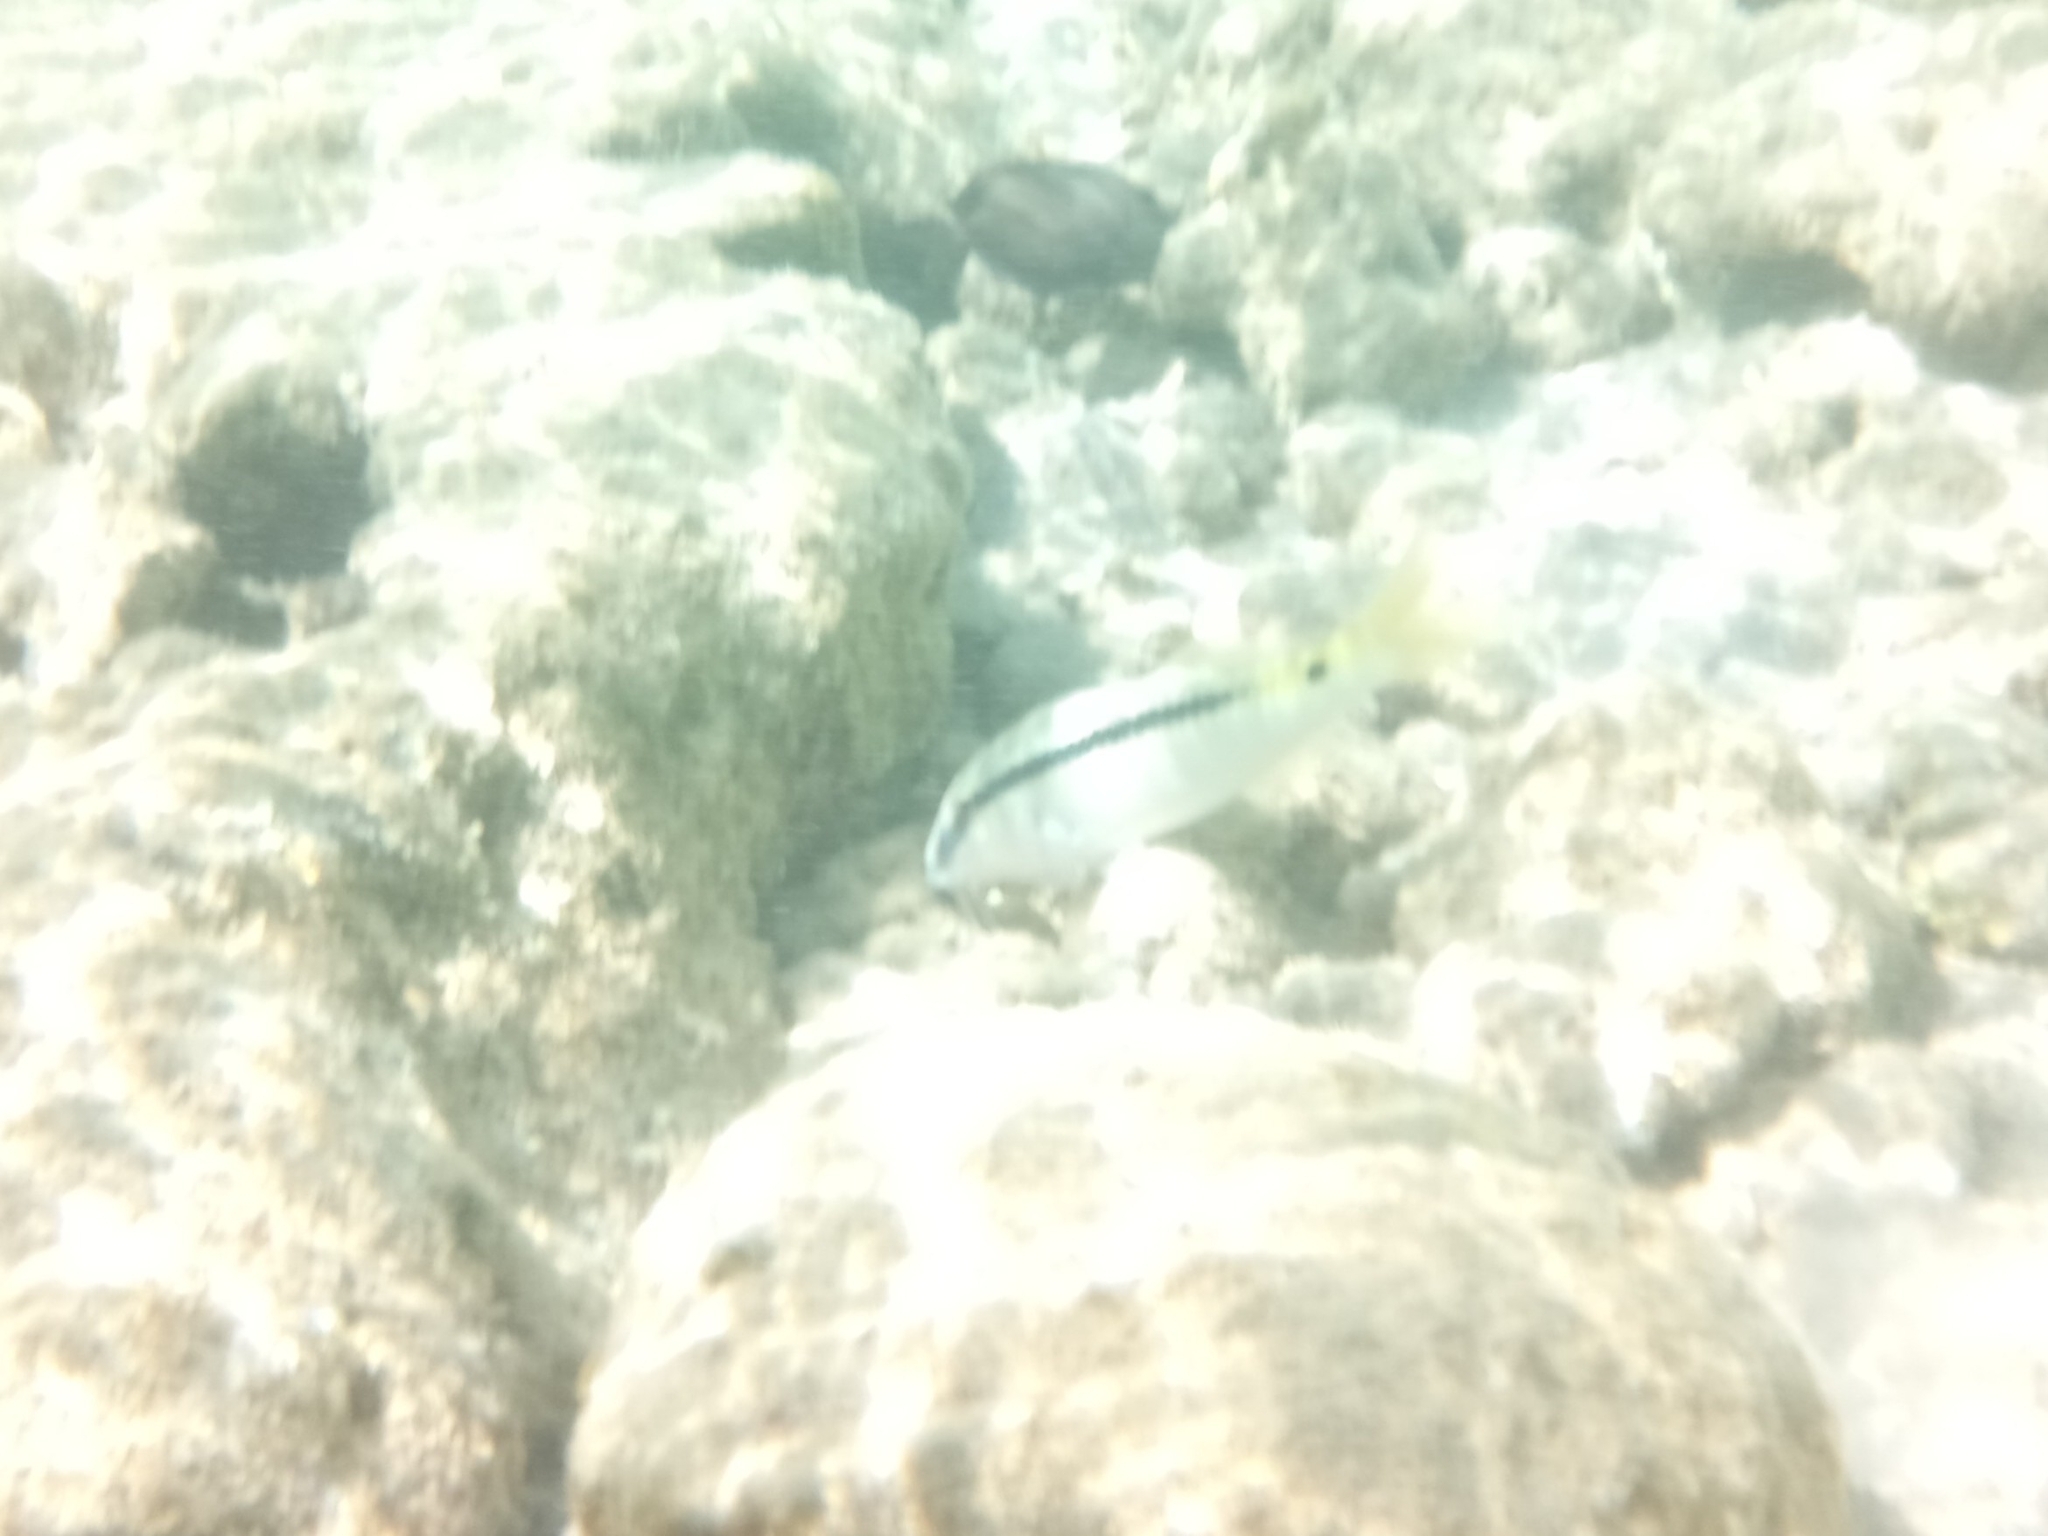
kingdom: Animalia
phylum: Chordata
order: Perciformes
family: Mullidae
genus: Parupeneus
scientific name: Parupeneus forsskali
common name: Red sea goatfish
